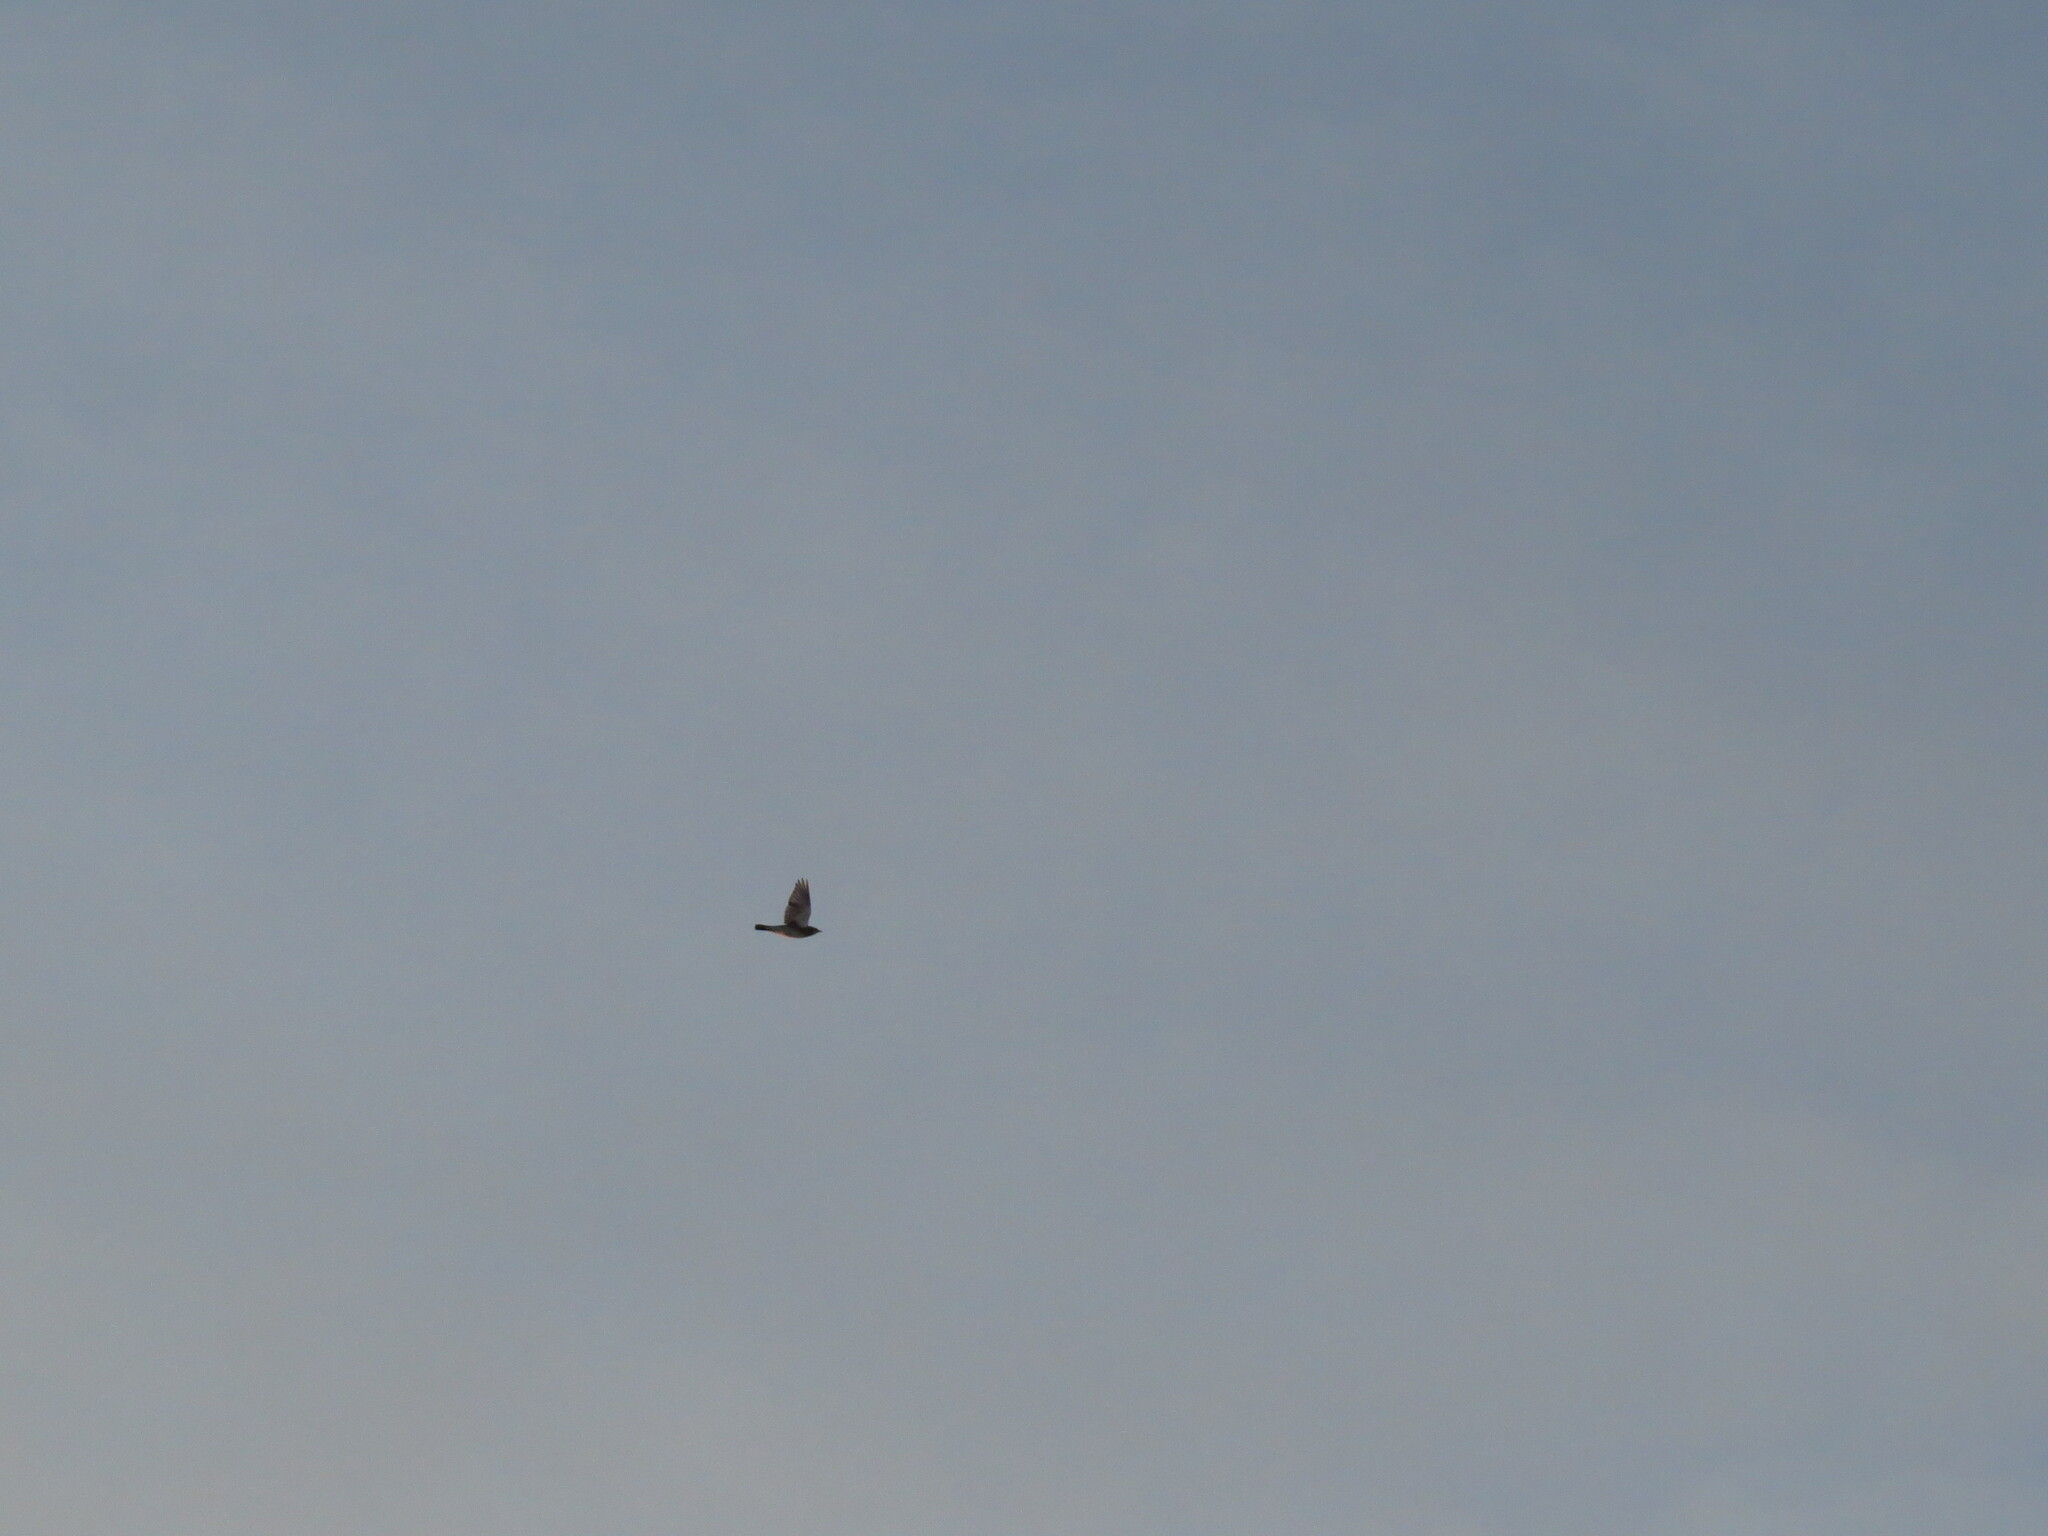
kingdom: Animalia
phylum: Chordata
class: Aves
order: Passeriformes
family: Turdidae
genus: Turdus
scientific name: Turdus pilaris
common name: Fieldfare
